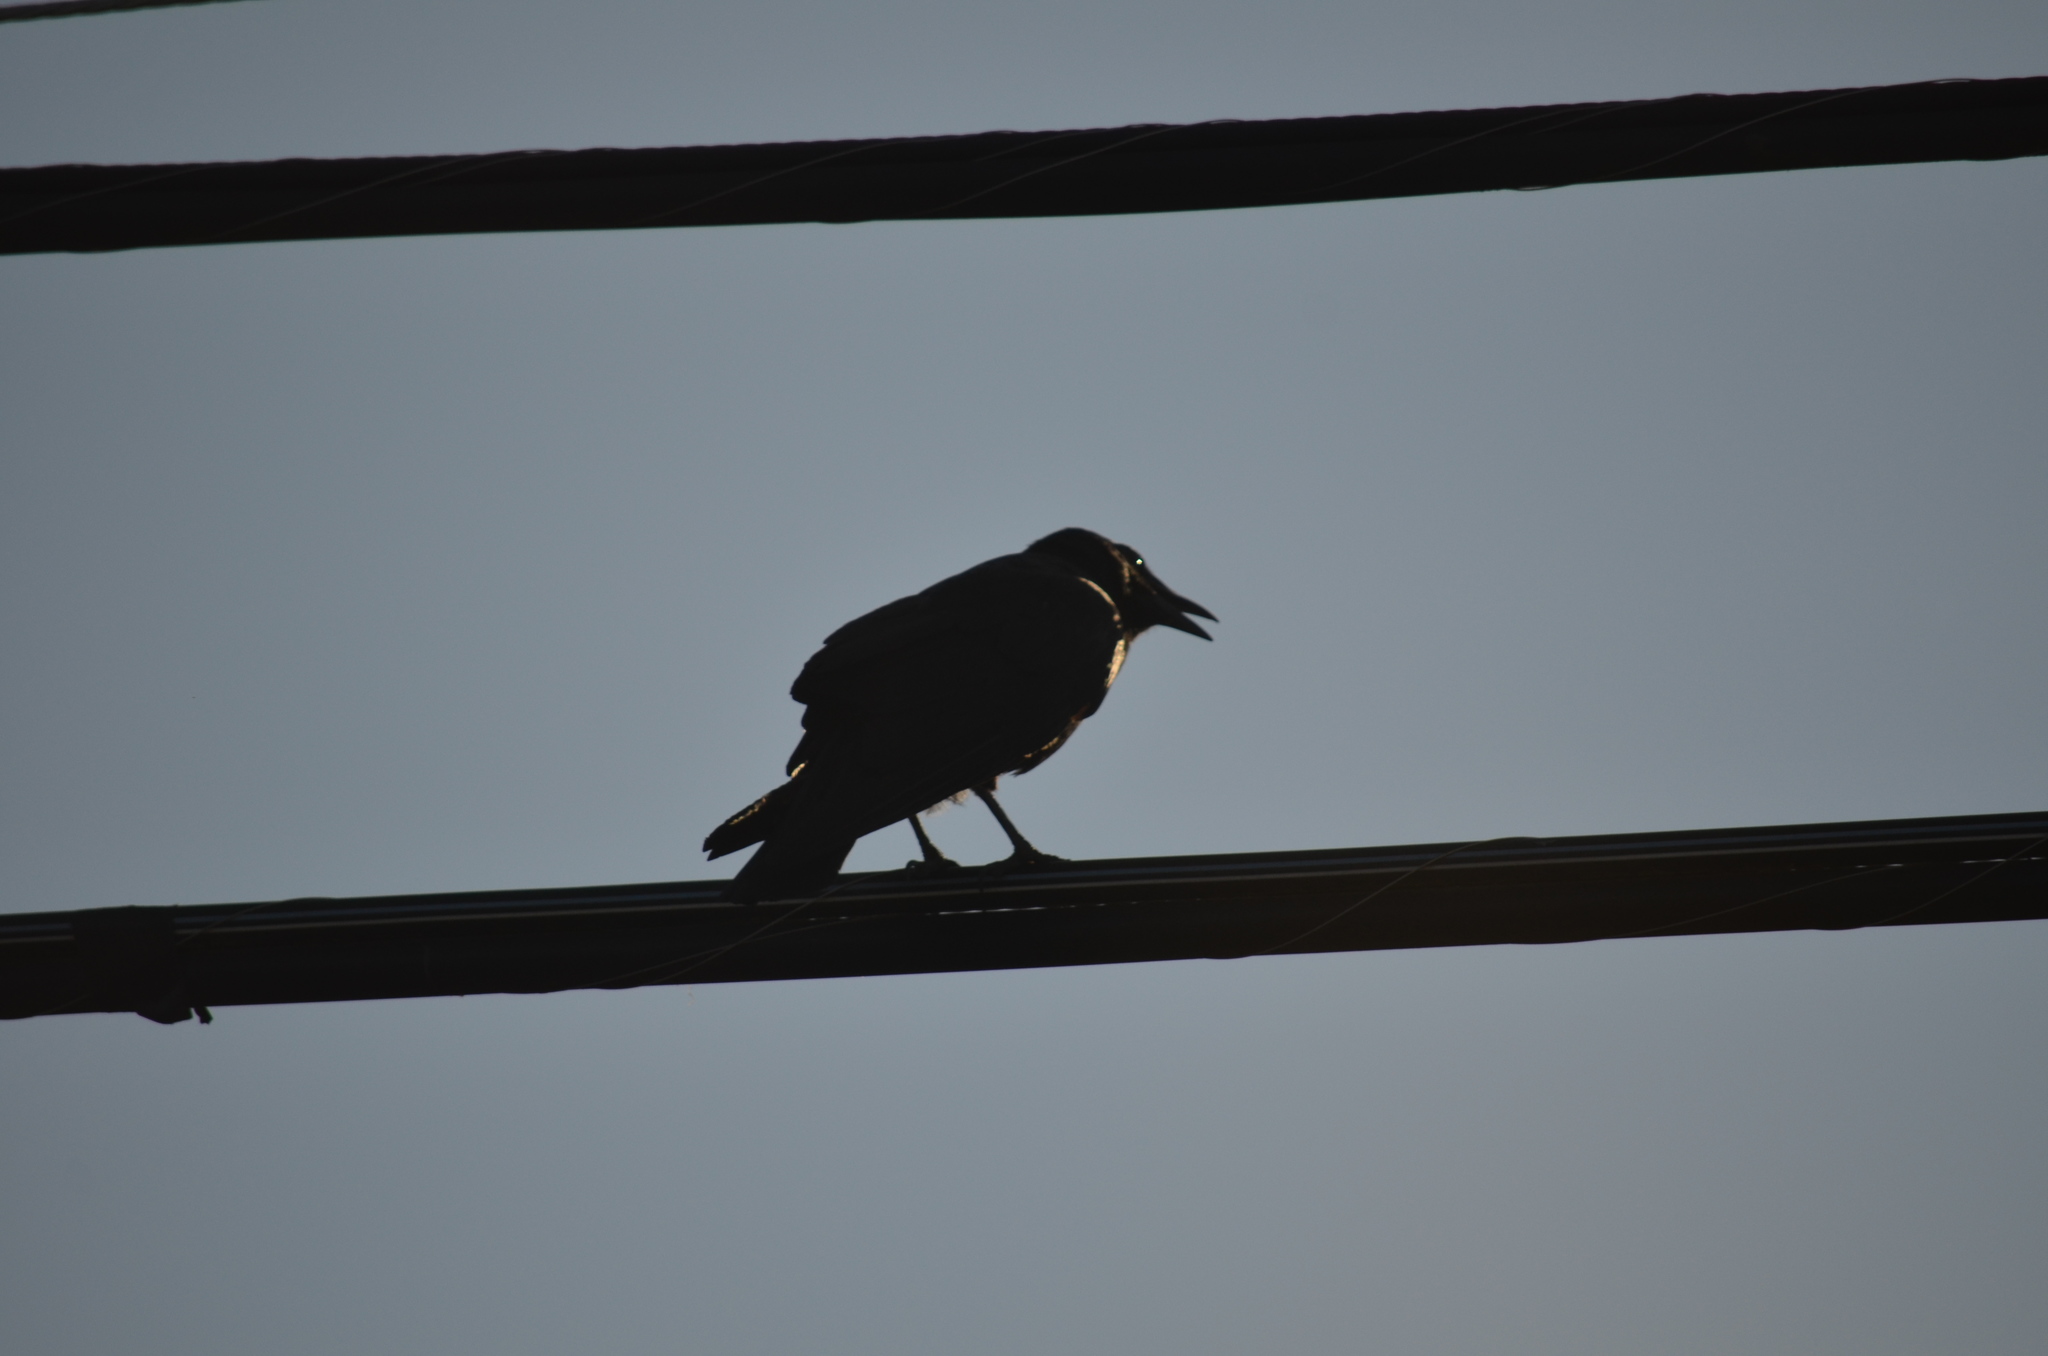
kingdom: Animalia
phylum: Chordata
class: Aves
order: Passeriformes
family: Corvidae
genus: Corvus
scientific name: Corvus brachyrhynchos
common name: American crow
